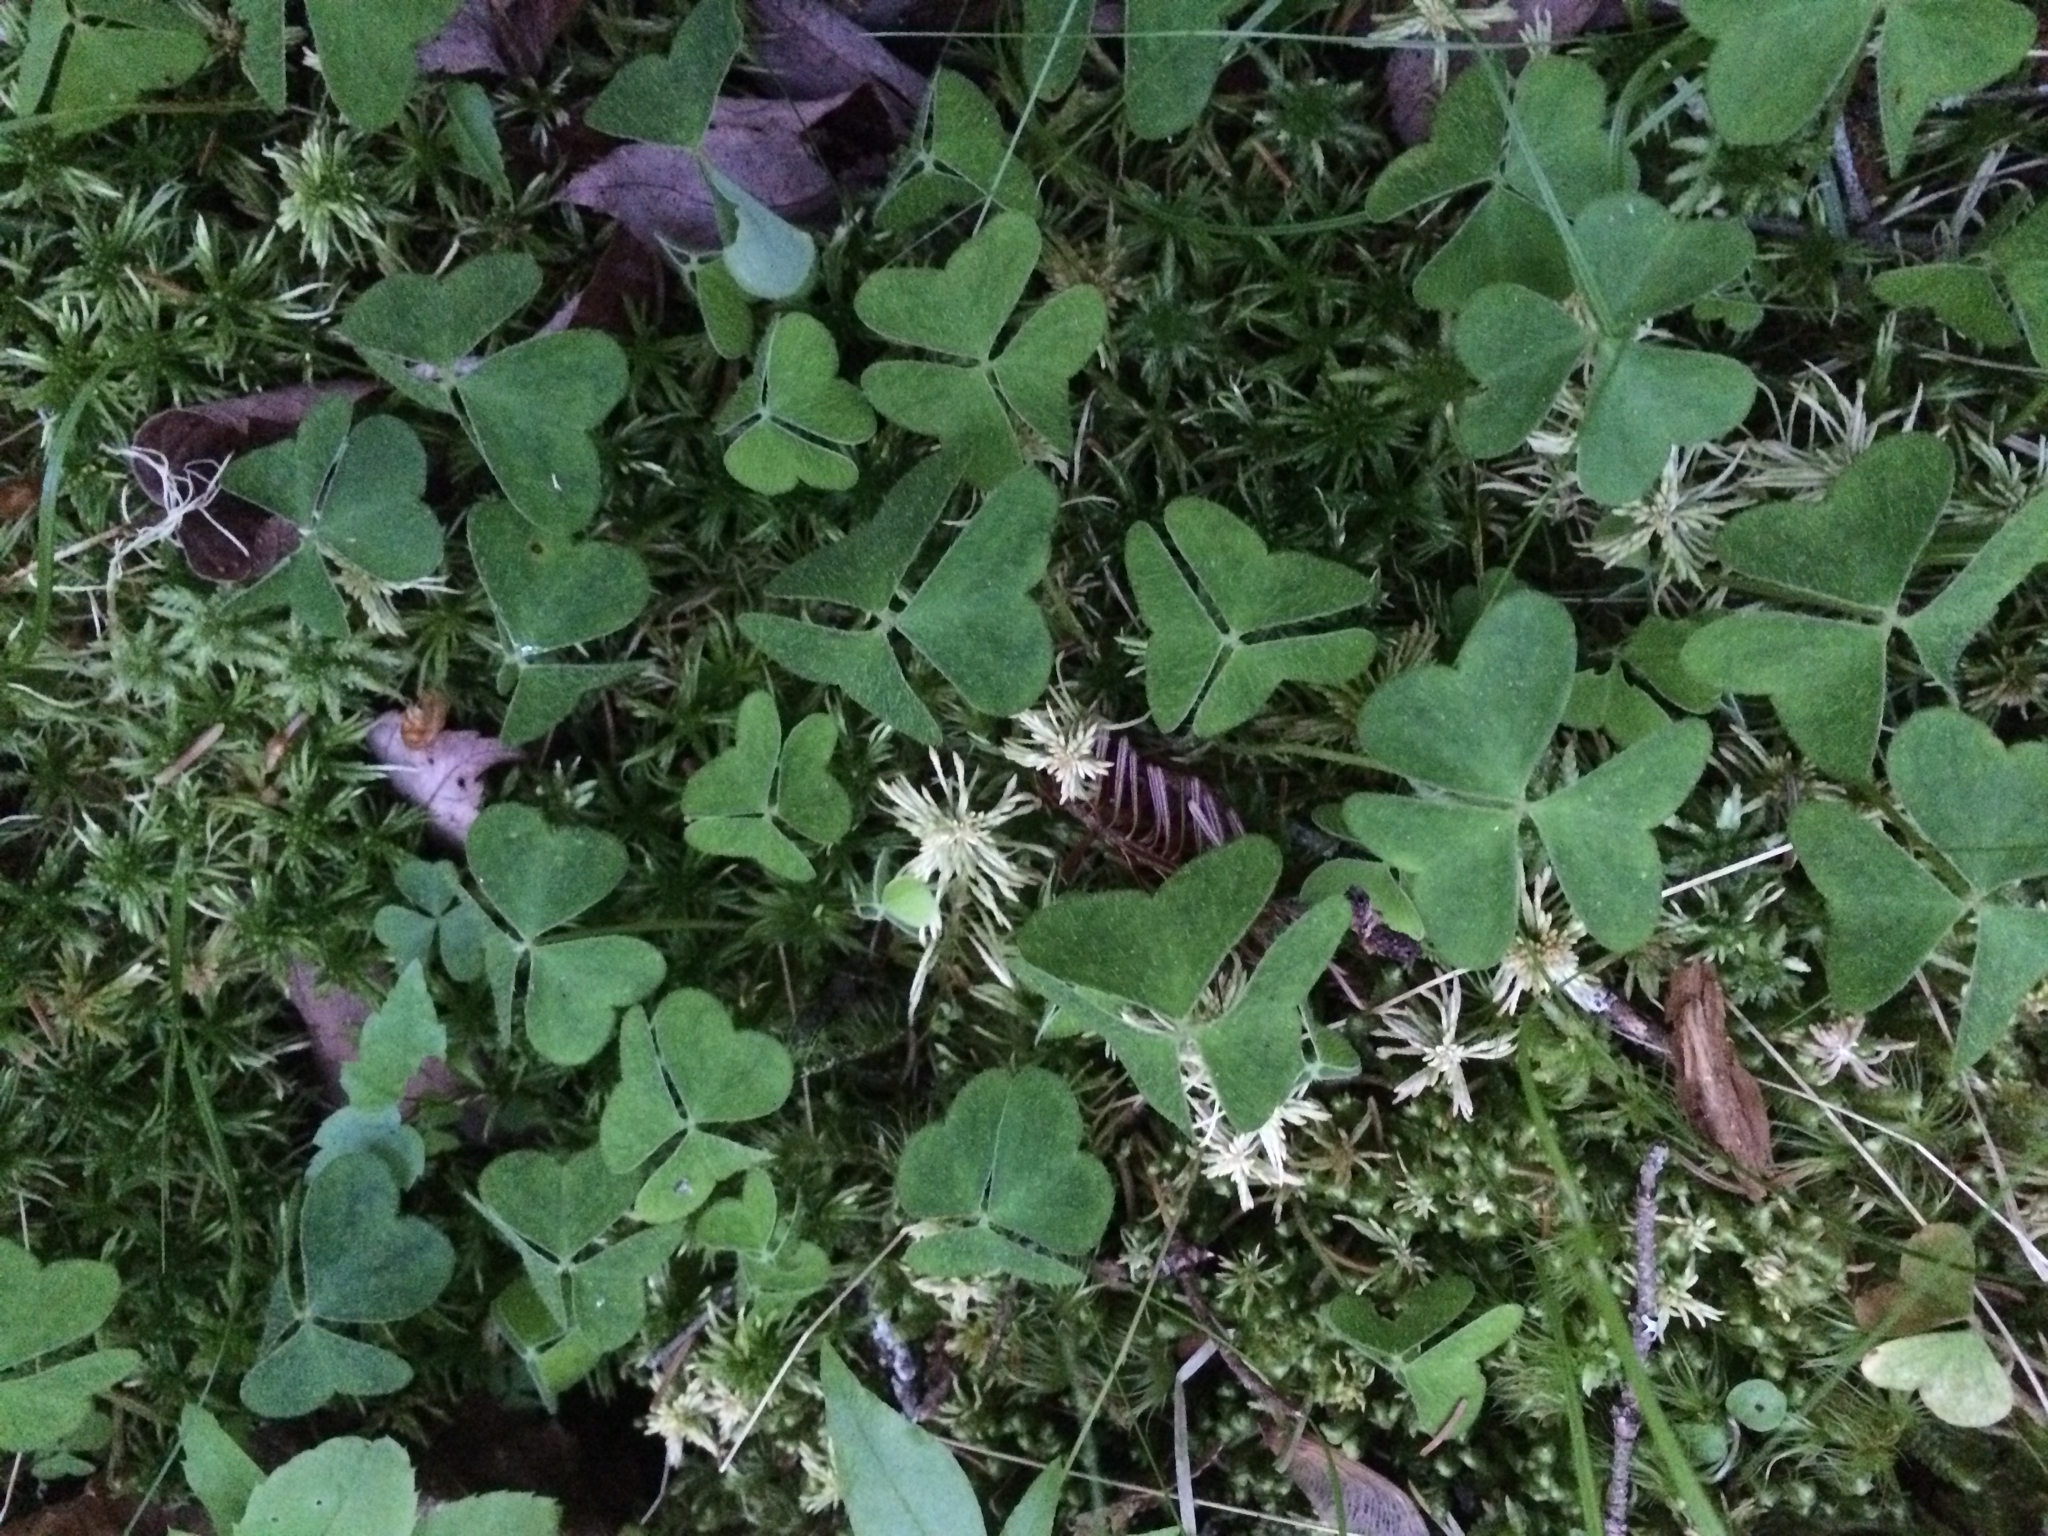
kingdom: Plantae
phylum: Tracheophyta
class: Magnoliopsida
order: Oxalidales
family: Oxalidaceae
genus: Oxalis
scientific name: Oxalis montana
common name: American wood-sorrel
